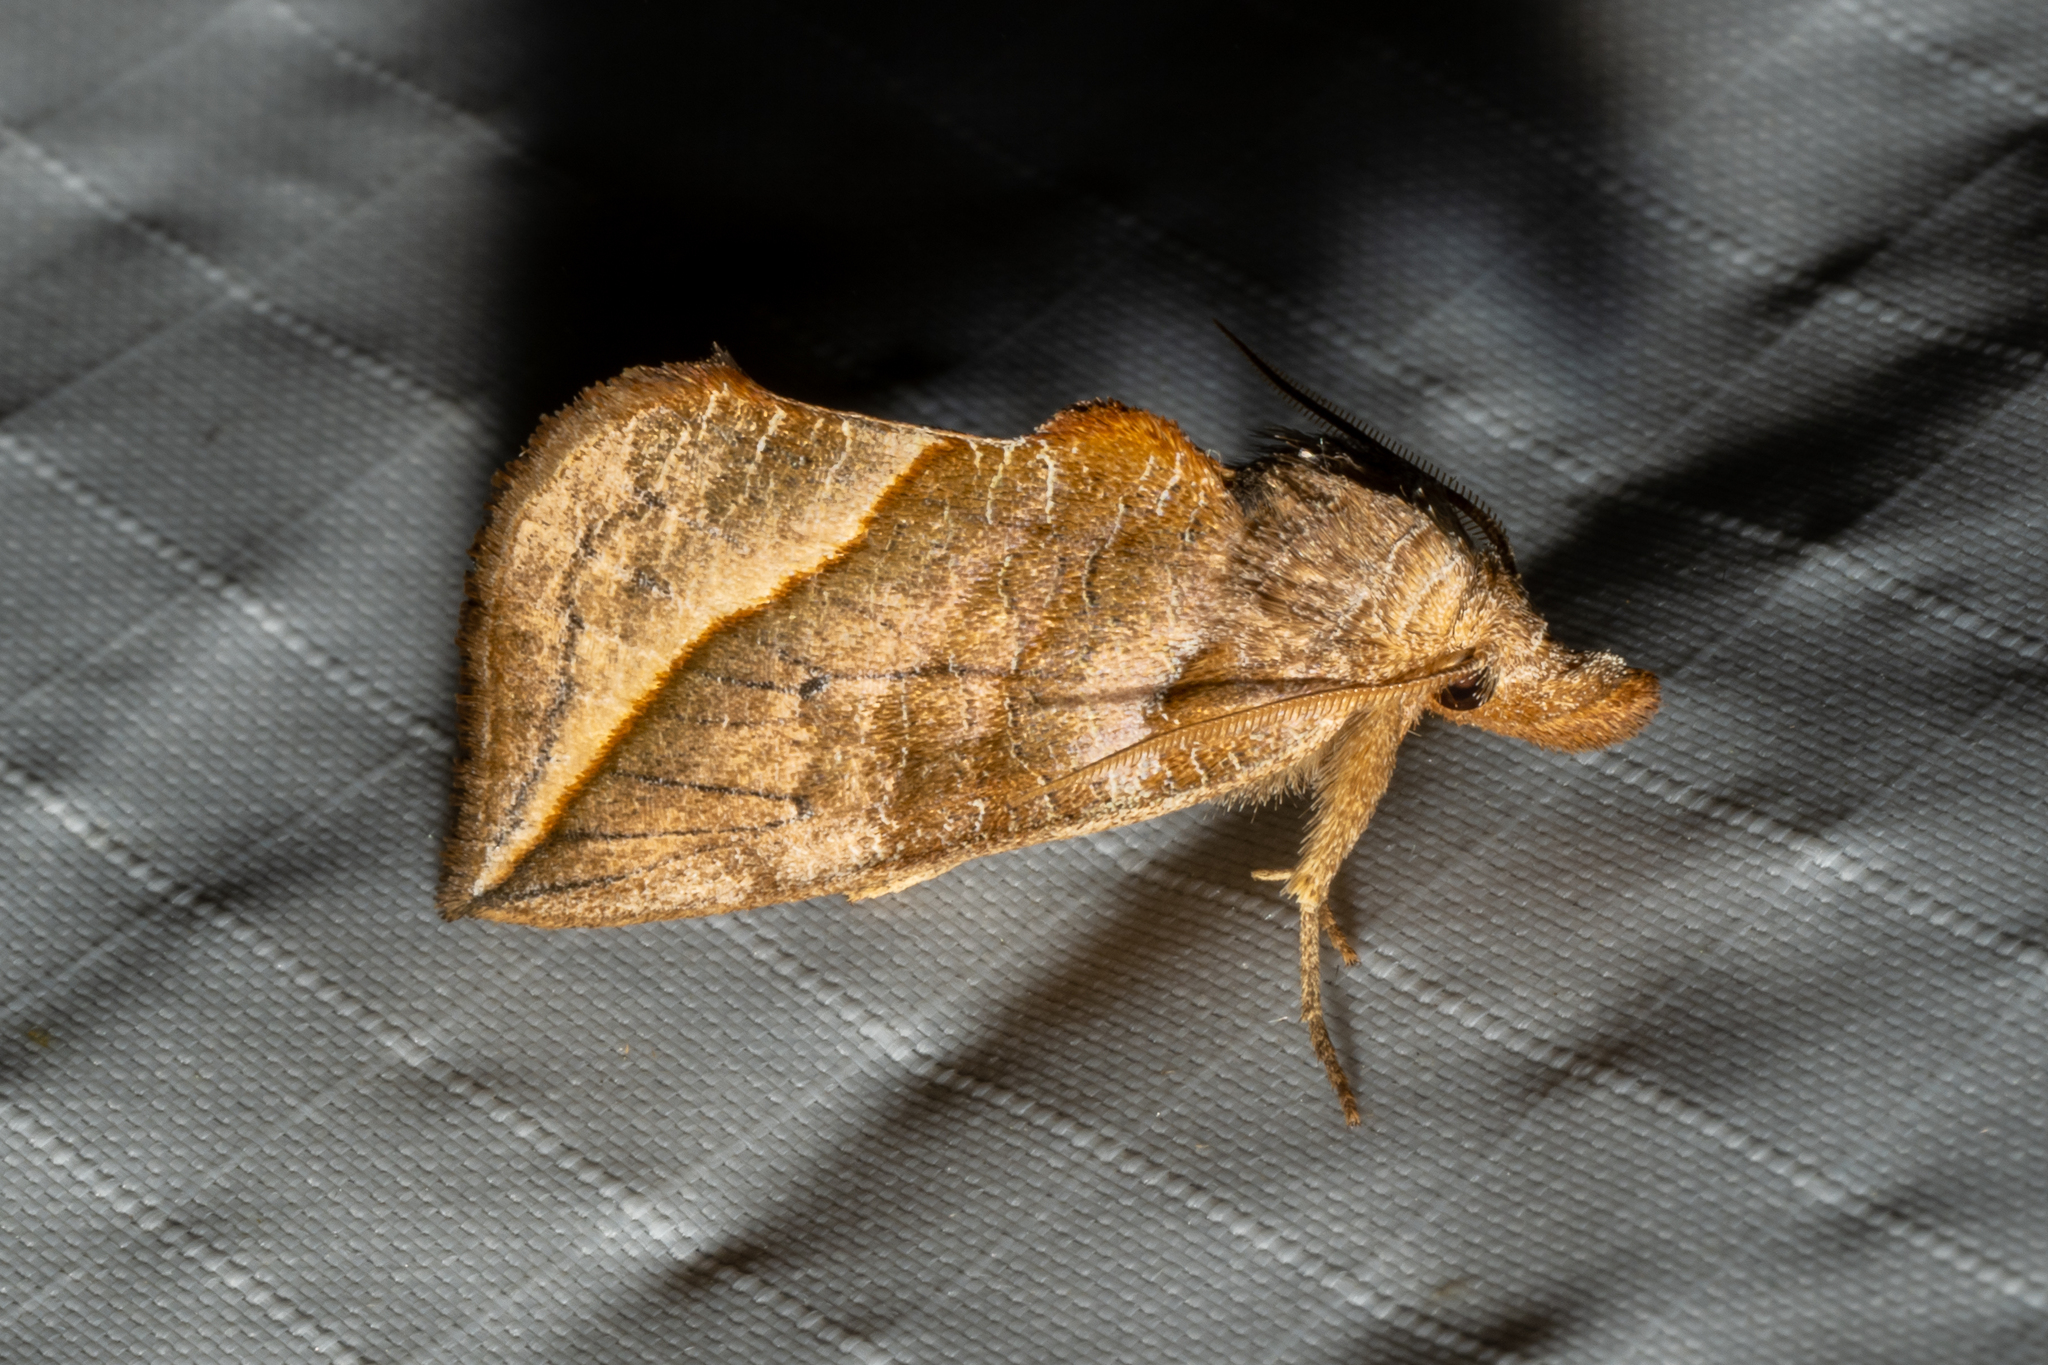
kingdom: Animalia
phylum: Arthropoda
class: Insecta
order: Lepidoptera
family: Erebidae
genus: Calyptra
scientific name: Calyptra canadensis
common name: Canadian owlet
